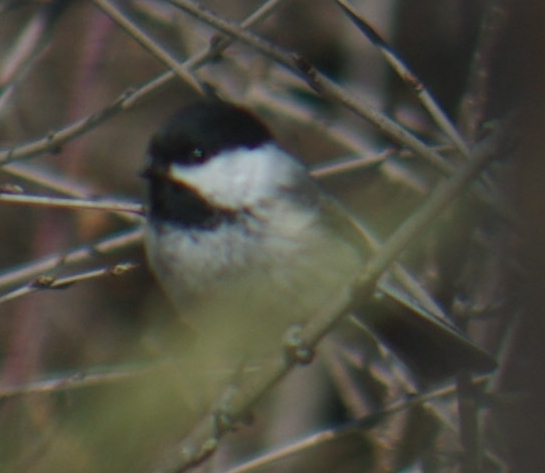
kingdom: Animalia
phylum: Chordata
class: Aves
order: Passeriformes
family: Paridae
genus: Poecile
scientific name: Poecile atricapillus
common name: Black-capped chickadee
